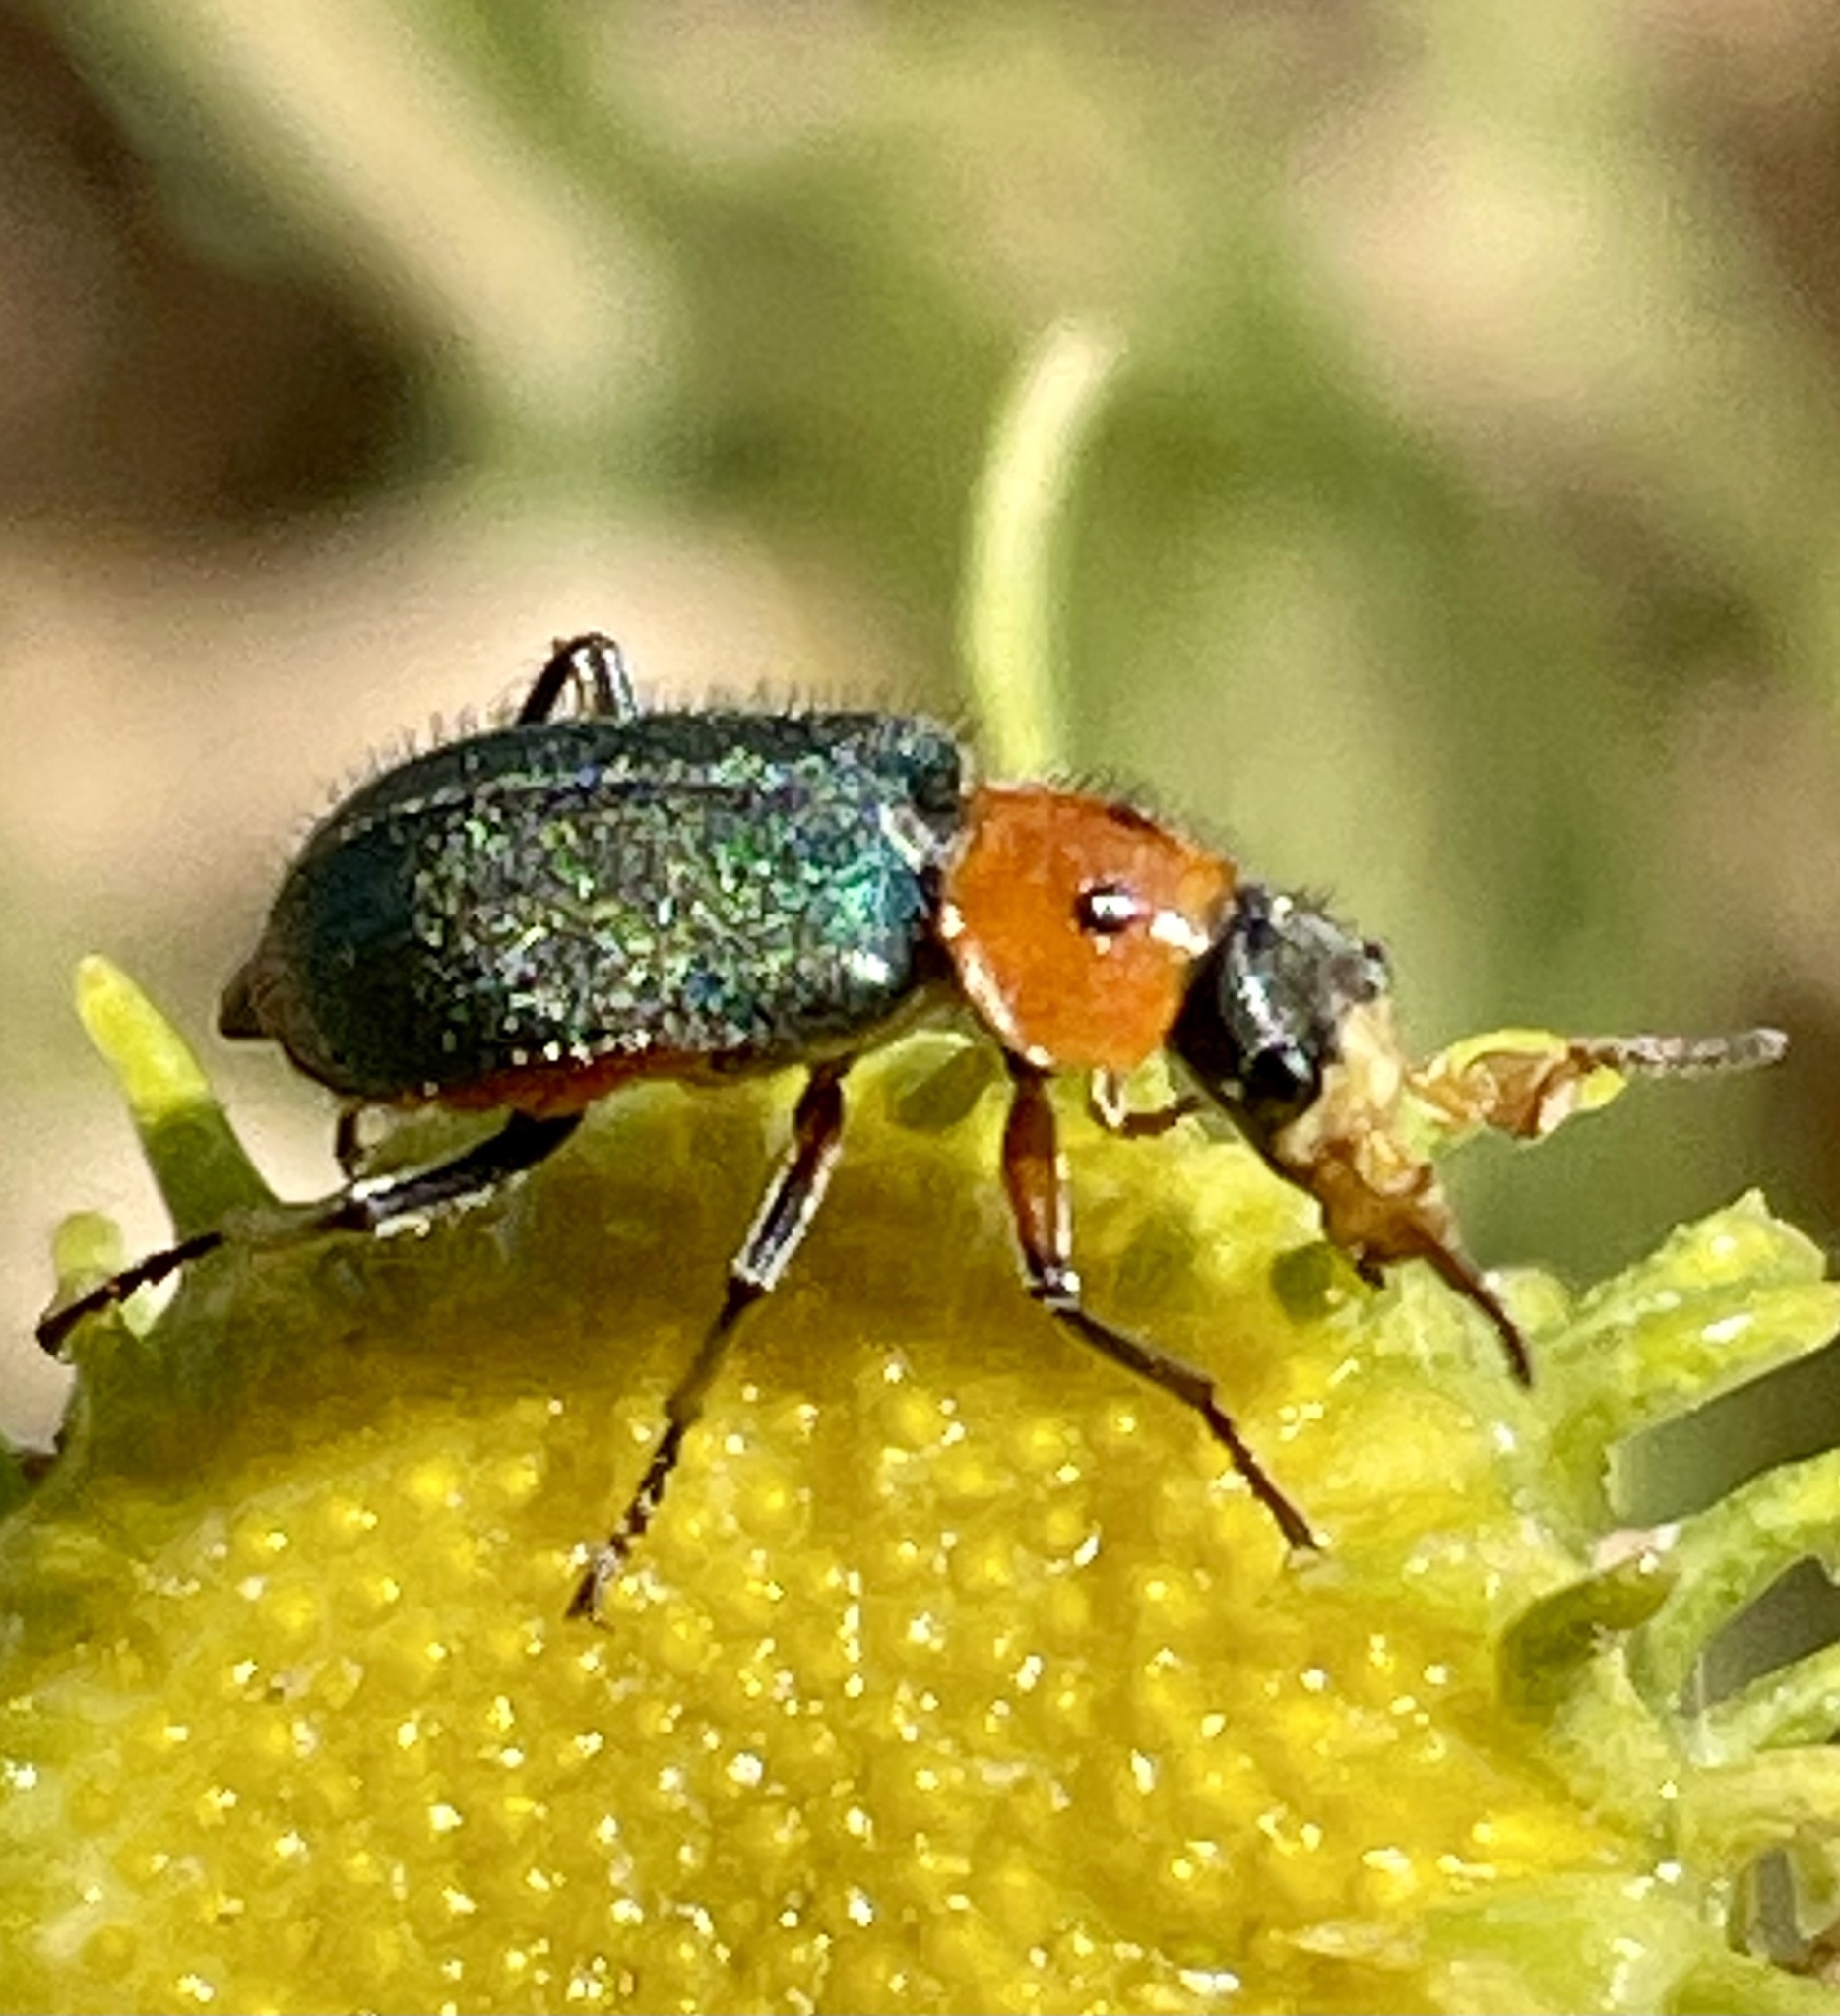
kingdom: Animalia
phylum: Arthropoda
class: Insecta
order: Coleoptera
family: Melyridae
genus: Collops
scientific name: Collops bipunctatus
